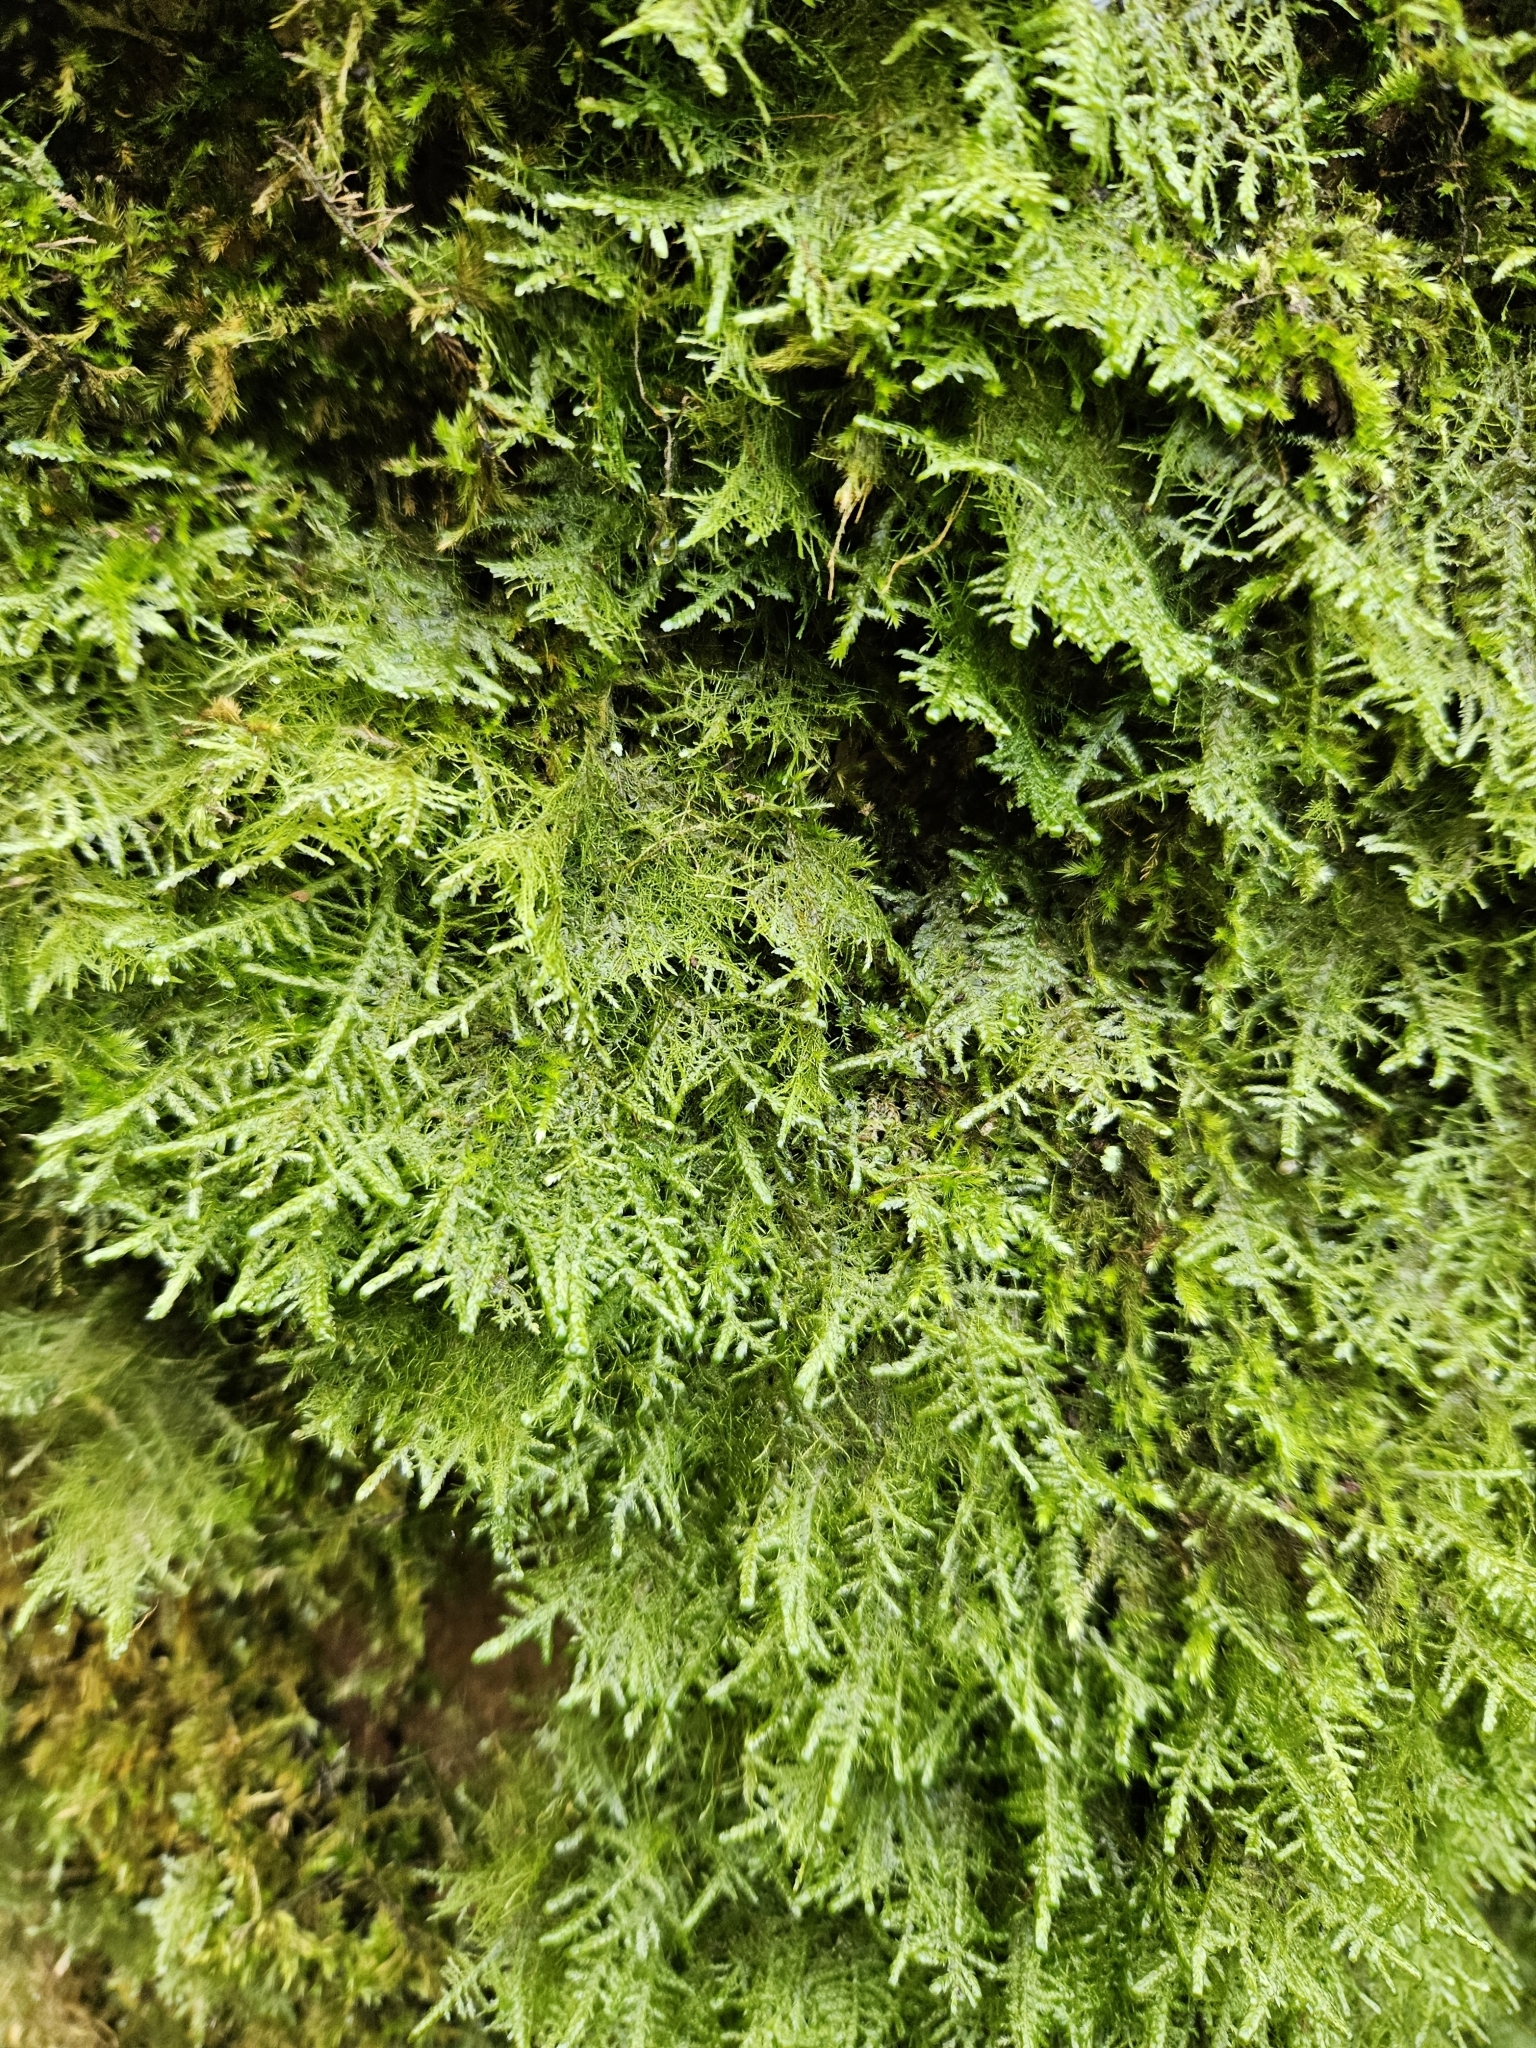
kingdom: Plantae
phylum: Bryophyta
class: Bryopsida
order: Hypnales
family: Neckeraceae
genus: Alleniella
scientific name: Alleniella complanata
